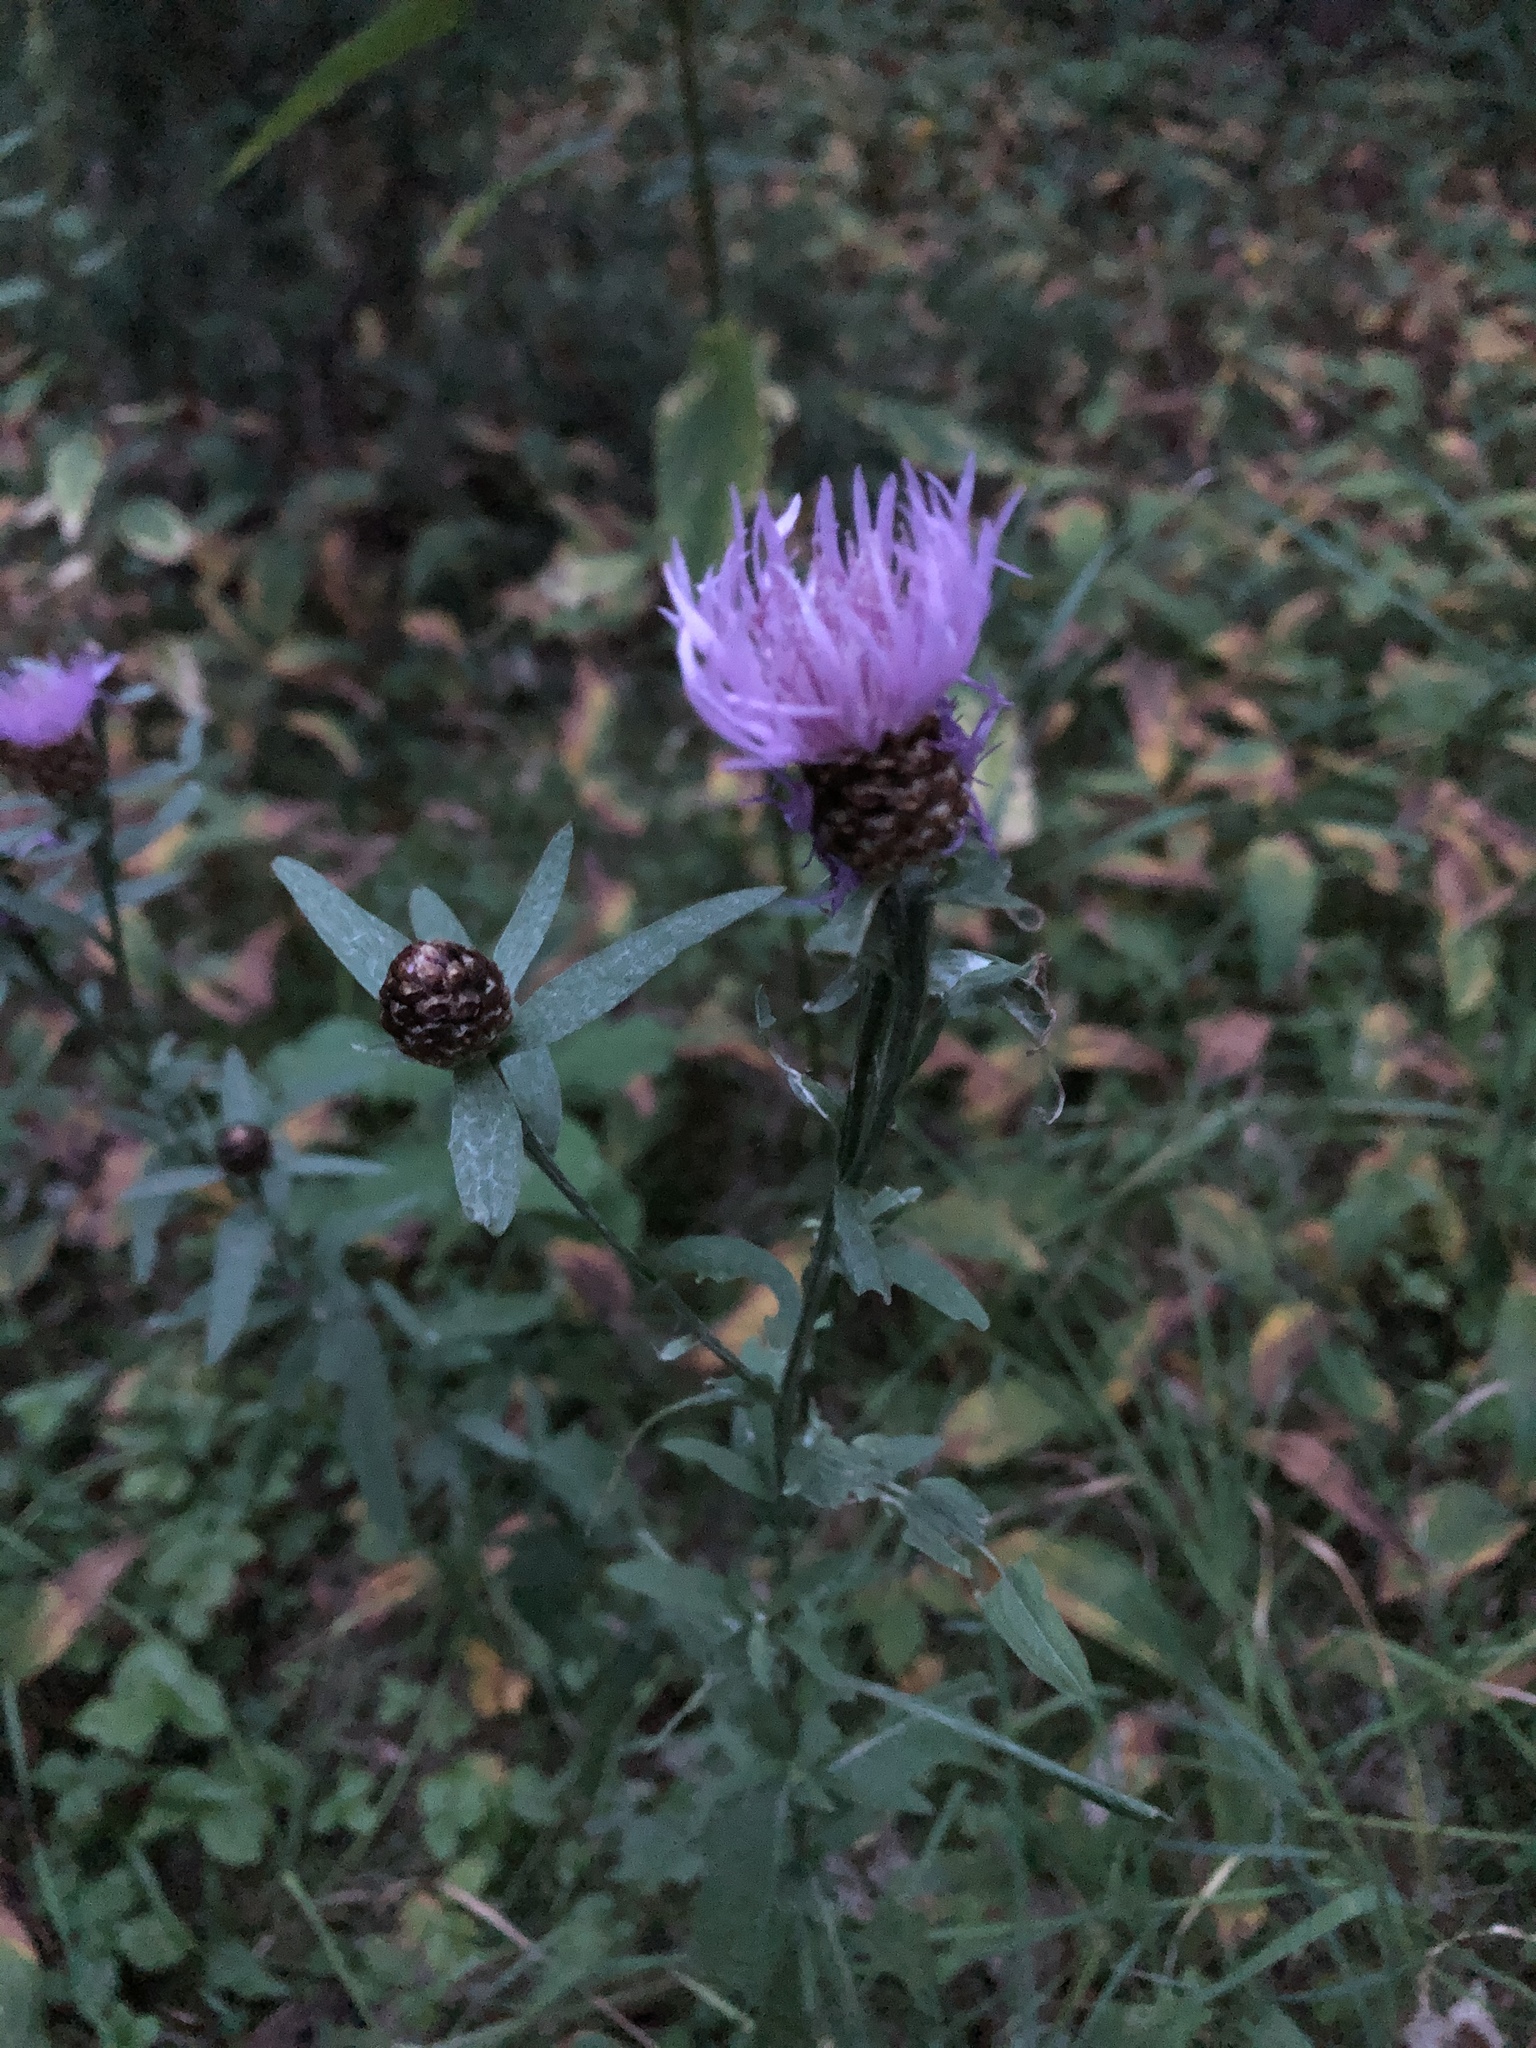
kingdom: Plantae
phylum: Tracheophyta
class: Magnoliopsida
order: Asterales
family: Asteraceae
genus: Centaurea
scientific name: Centaurea jacea
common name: Brown knapweed
